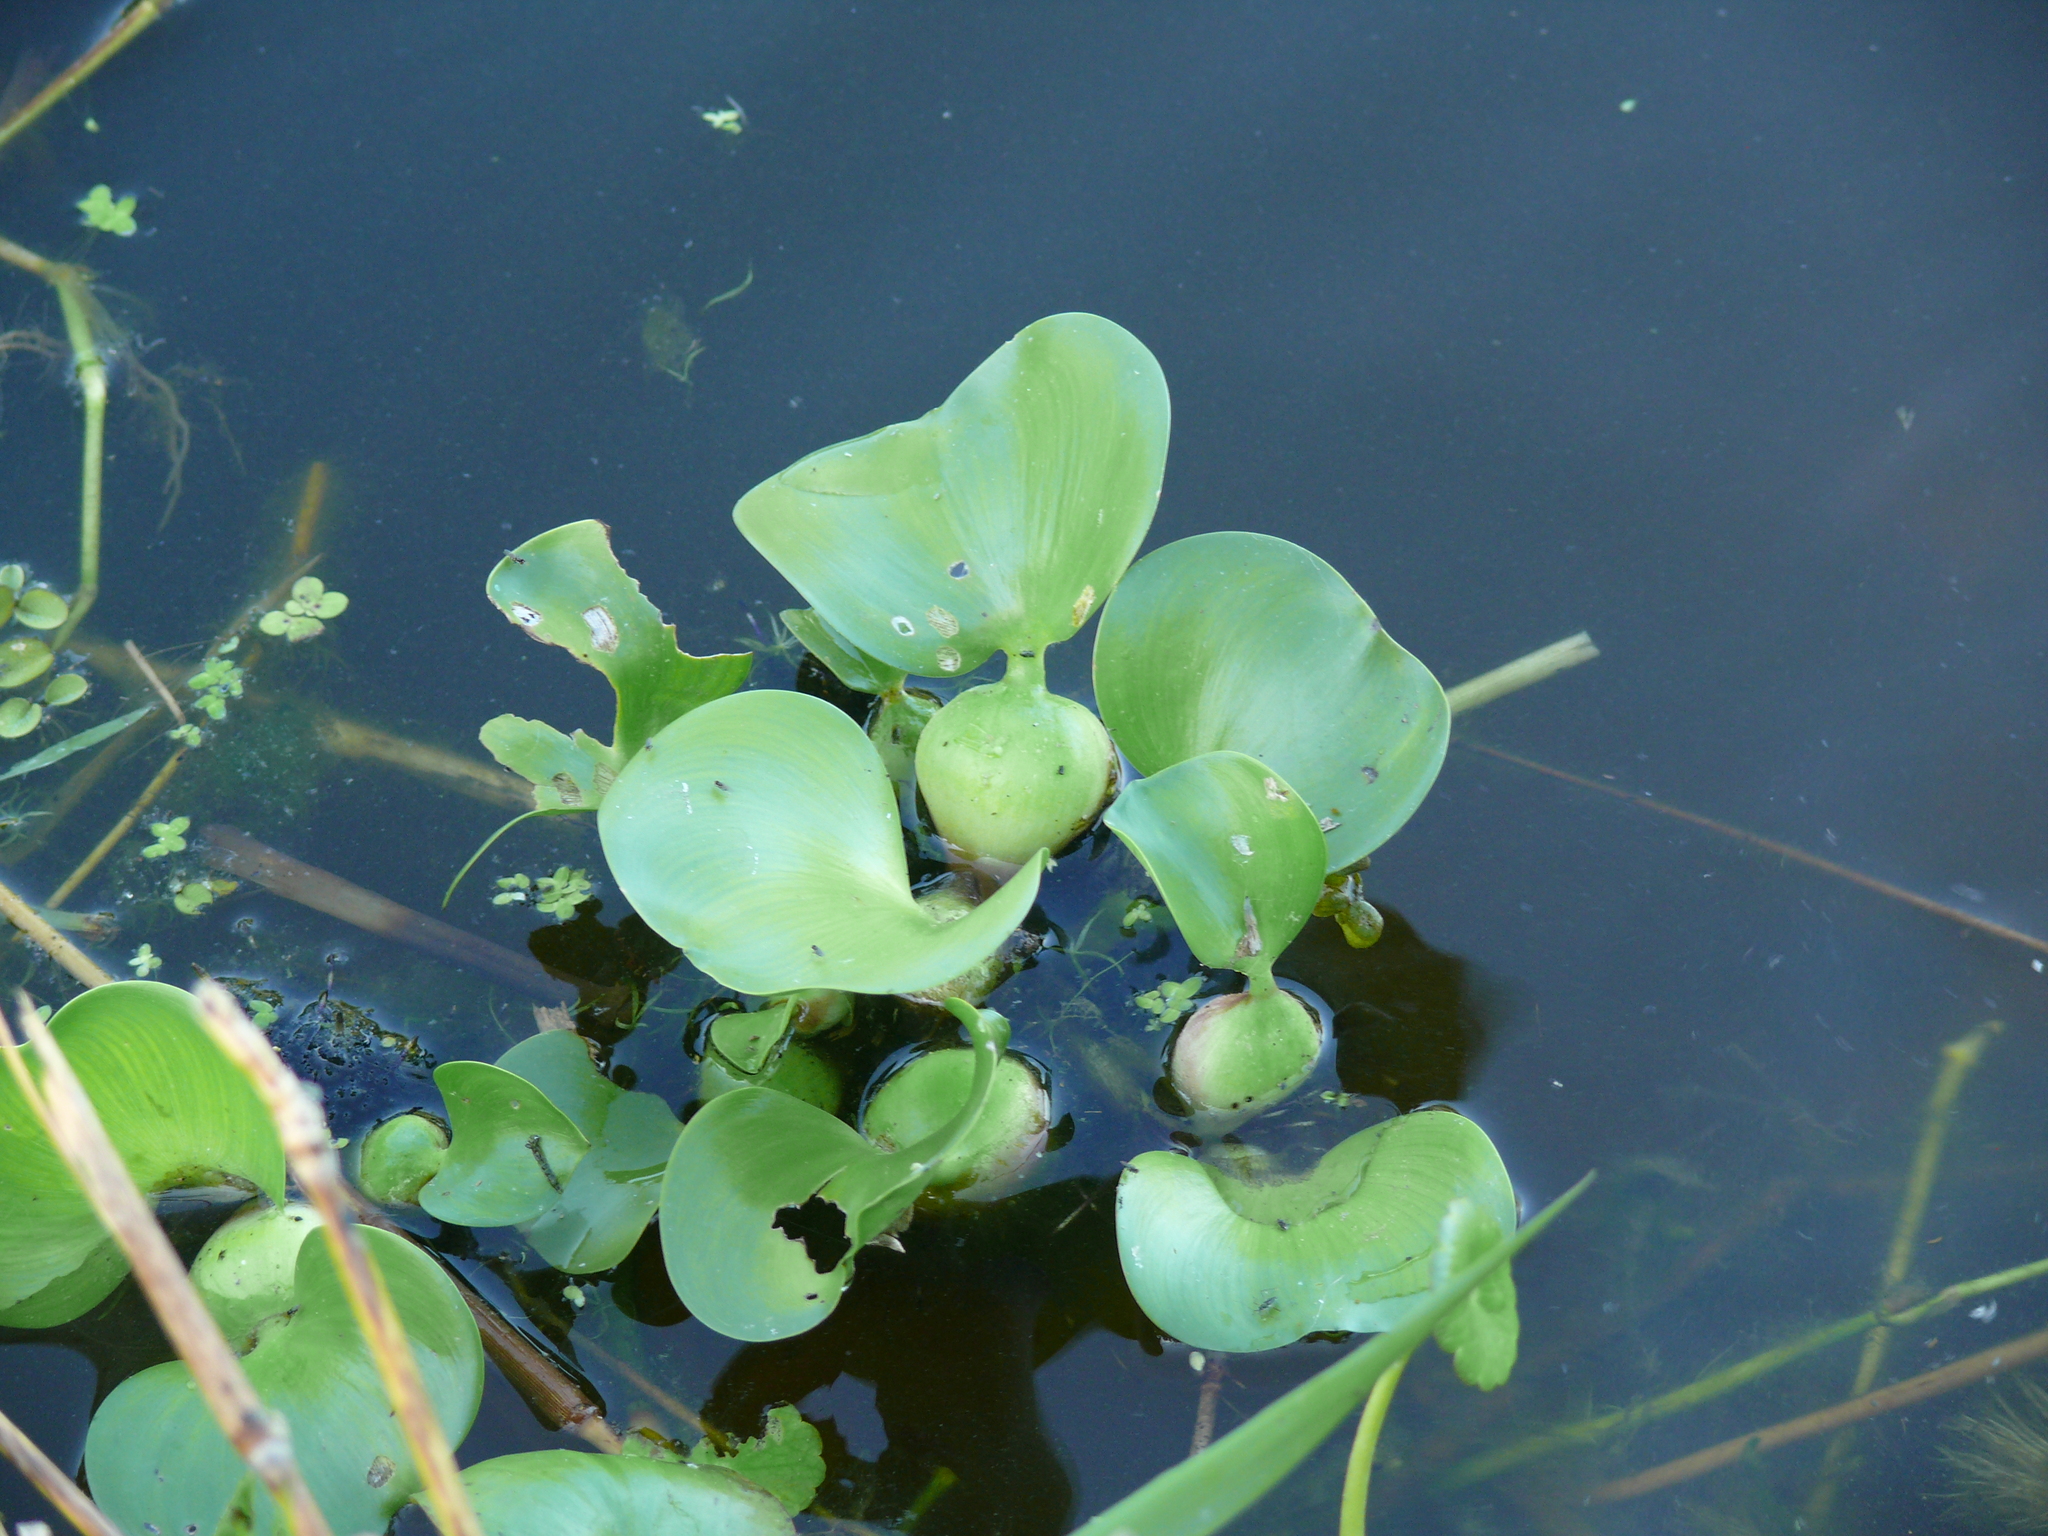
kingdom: Plantae
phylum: Tracheophyta
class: Liliopsida
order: Commelinales
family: Pontederiaceae
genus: Pontederia
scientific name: Pontederia crassipes
